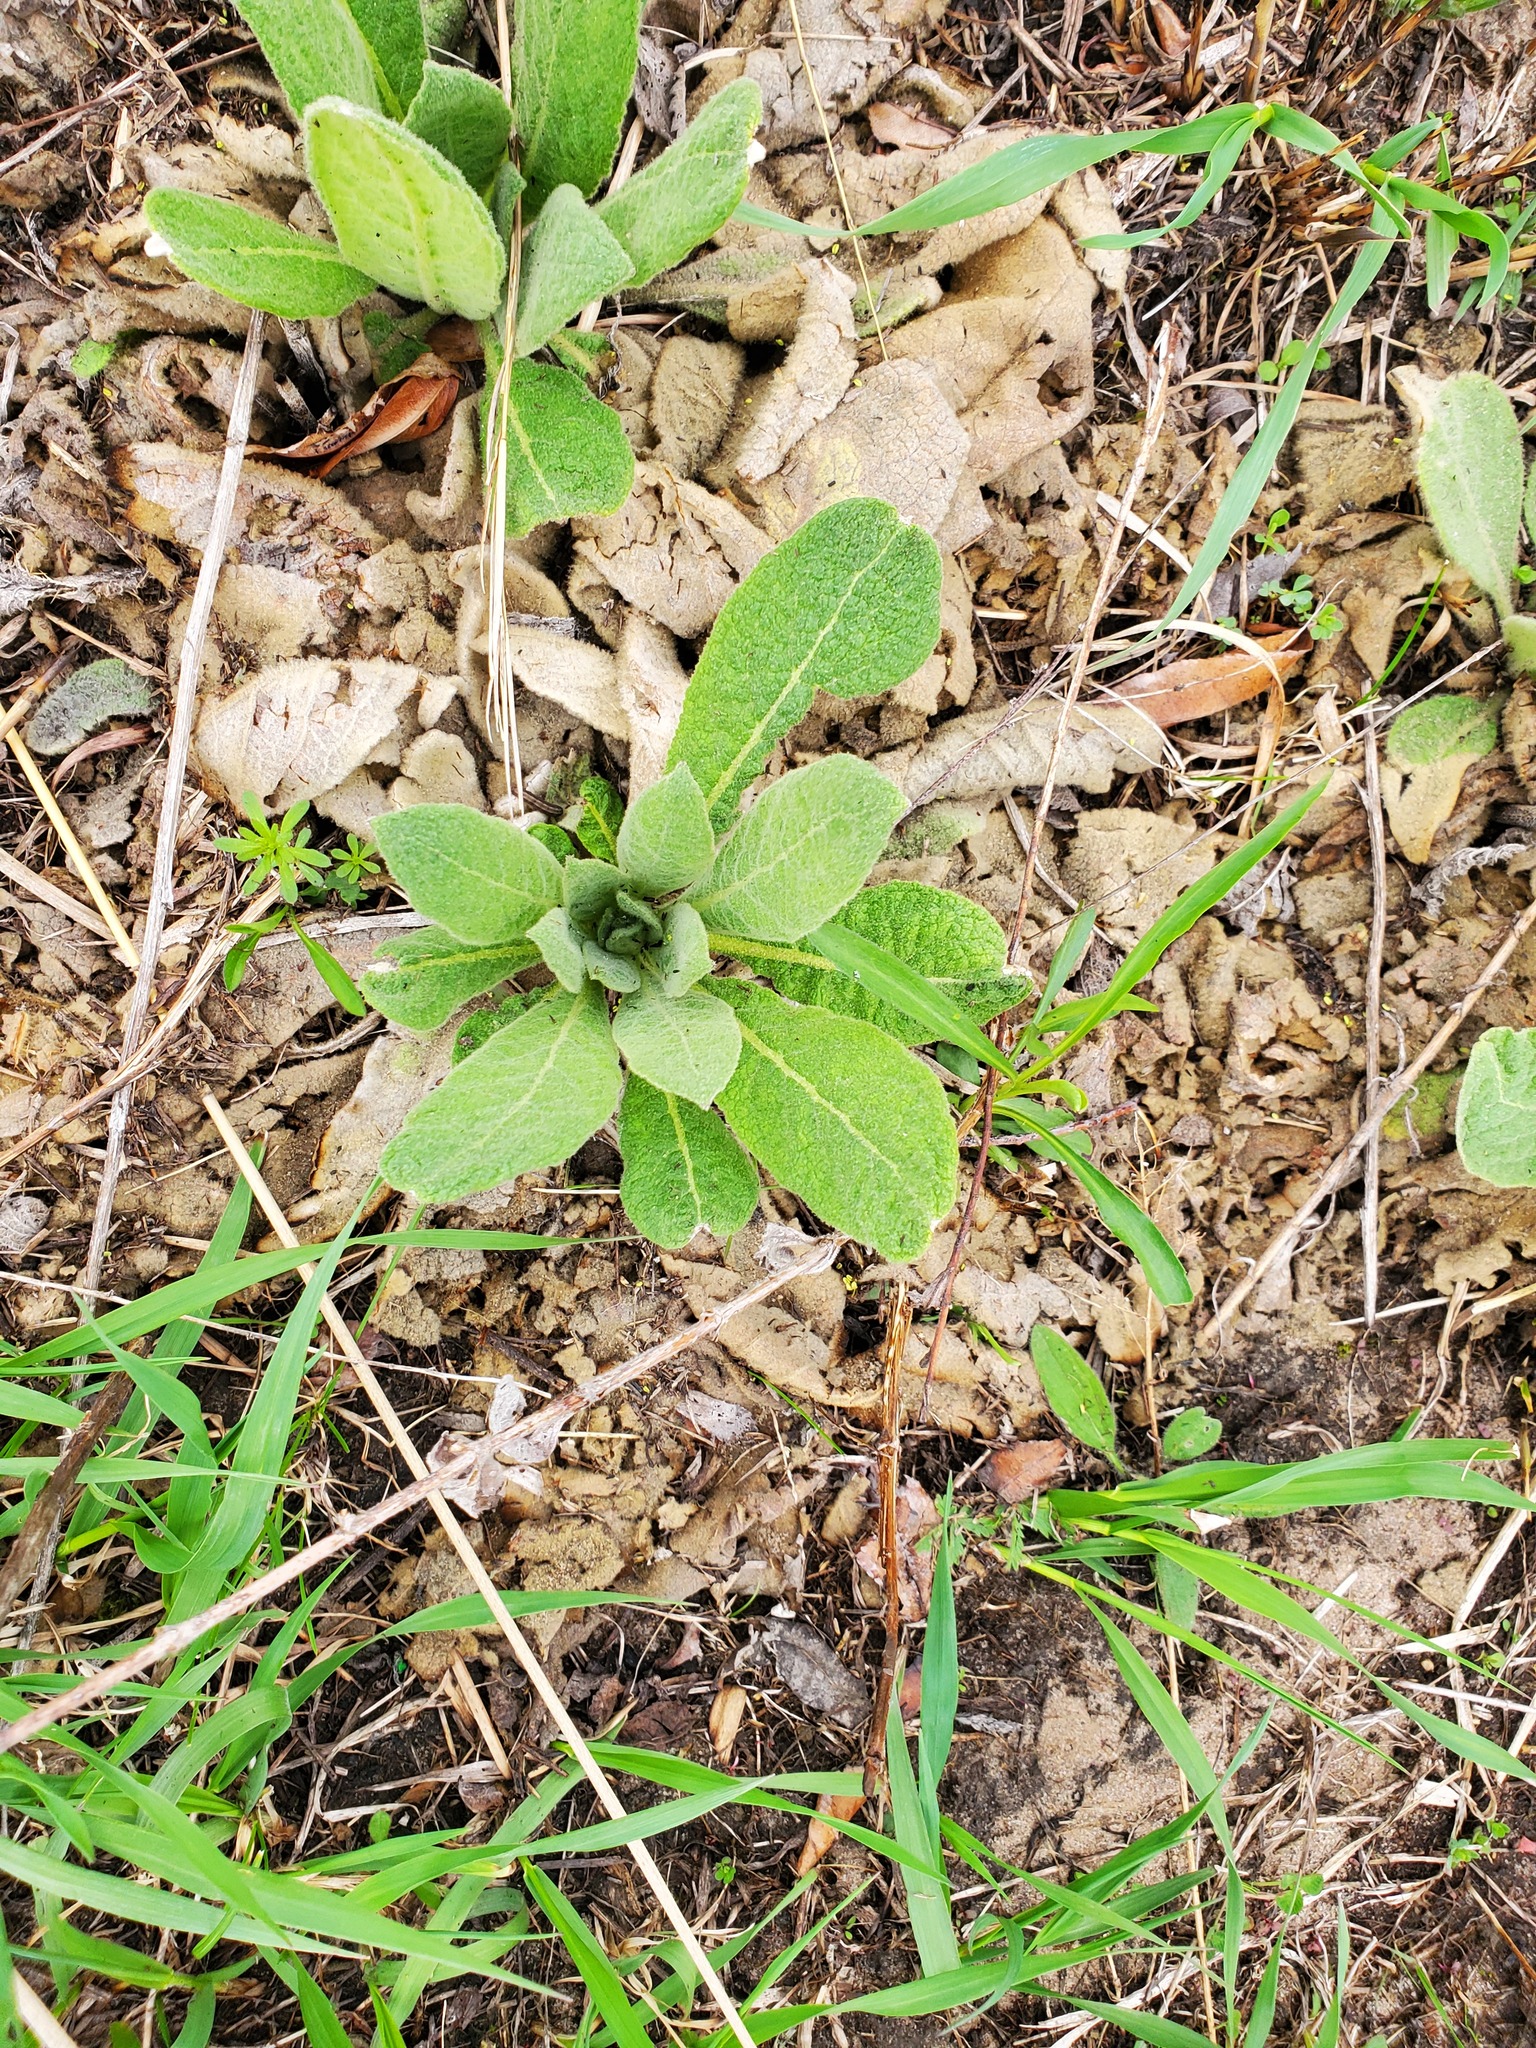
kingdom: Plantae
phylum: Tracheophyta
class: Magnoliopsida
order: Lamiales
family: Scrophulariaceae
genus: Verbascum
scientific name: Verbascum thapsus
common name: Common mullein
